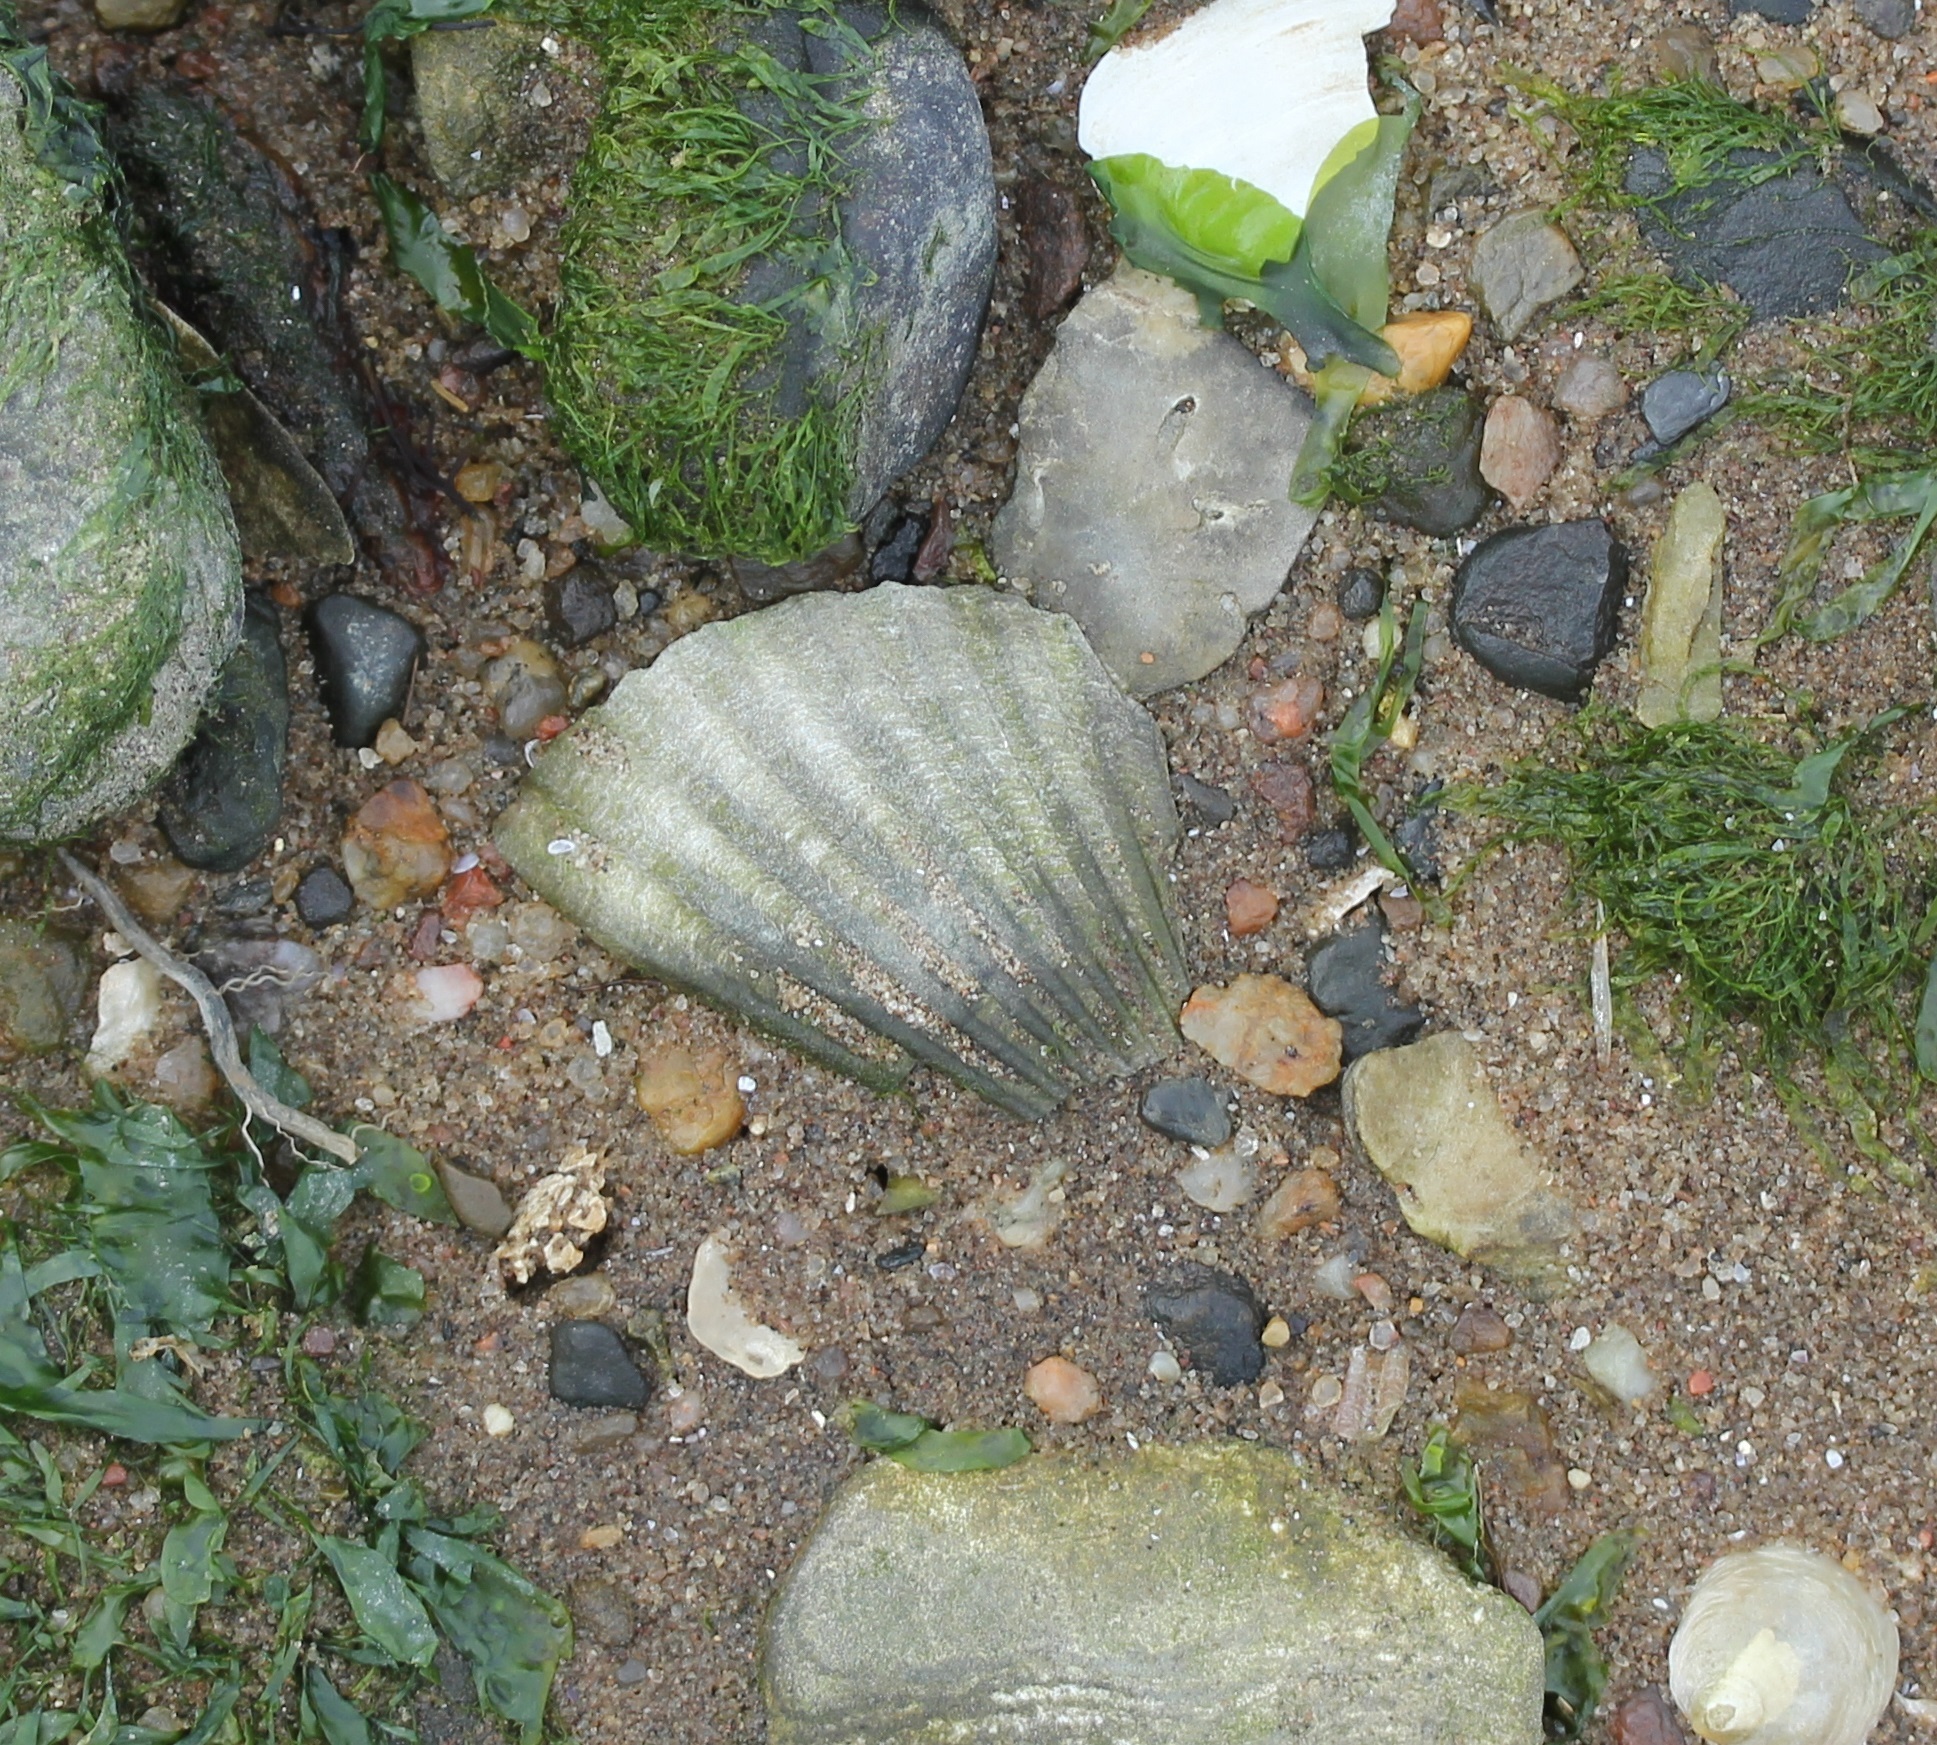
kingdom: Animalia
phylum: Mollusca
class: Bivalvia
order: Pectinida
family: Pectinidae
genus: Argopecten
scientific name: Argopecten irradians
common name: Atlantic bay scallop
